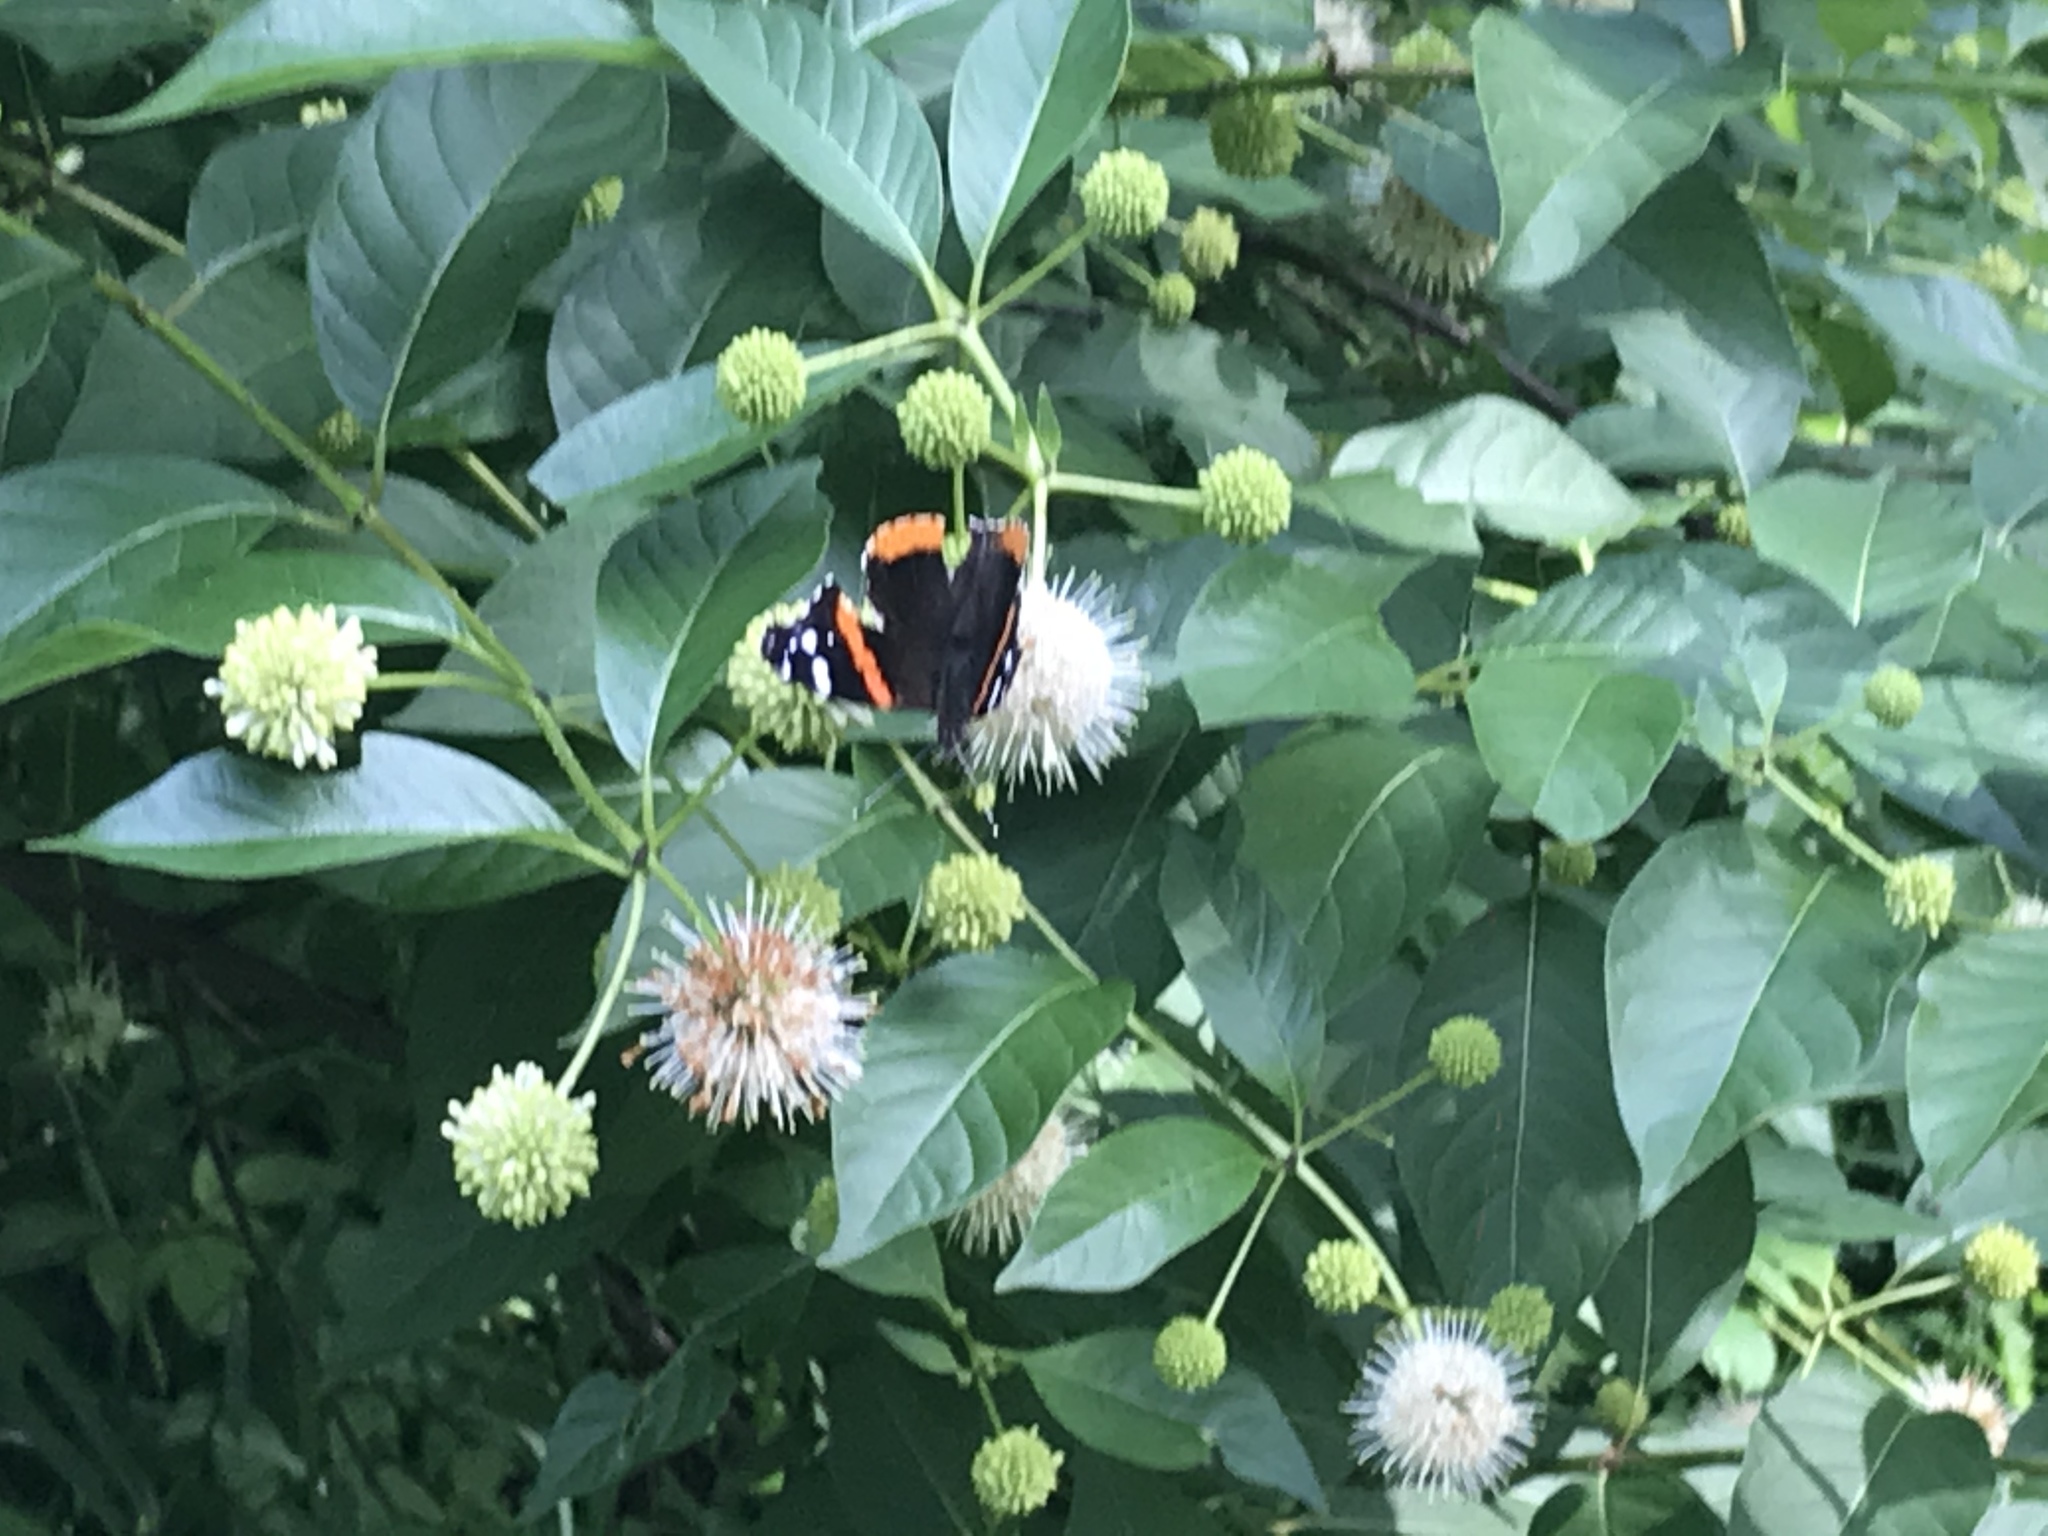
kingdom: Animalia
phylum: Arthropoda
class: Insecta
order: Lepidoptera
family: Nymphalidae
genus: Vanessa
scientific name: Vanessa atalanta
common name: Red admiral
